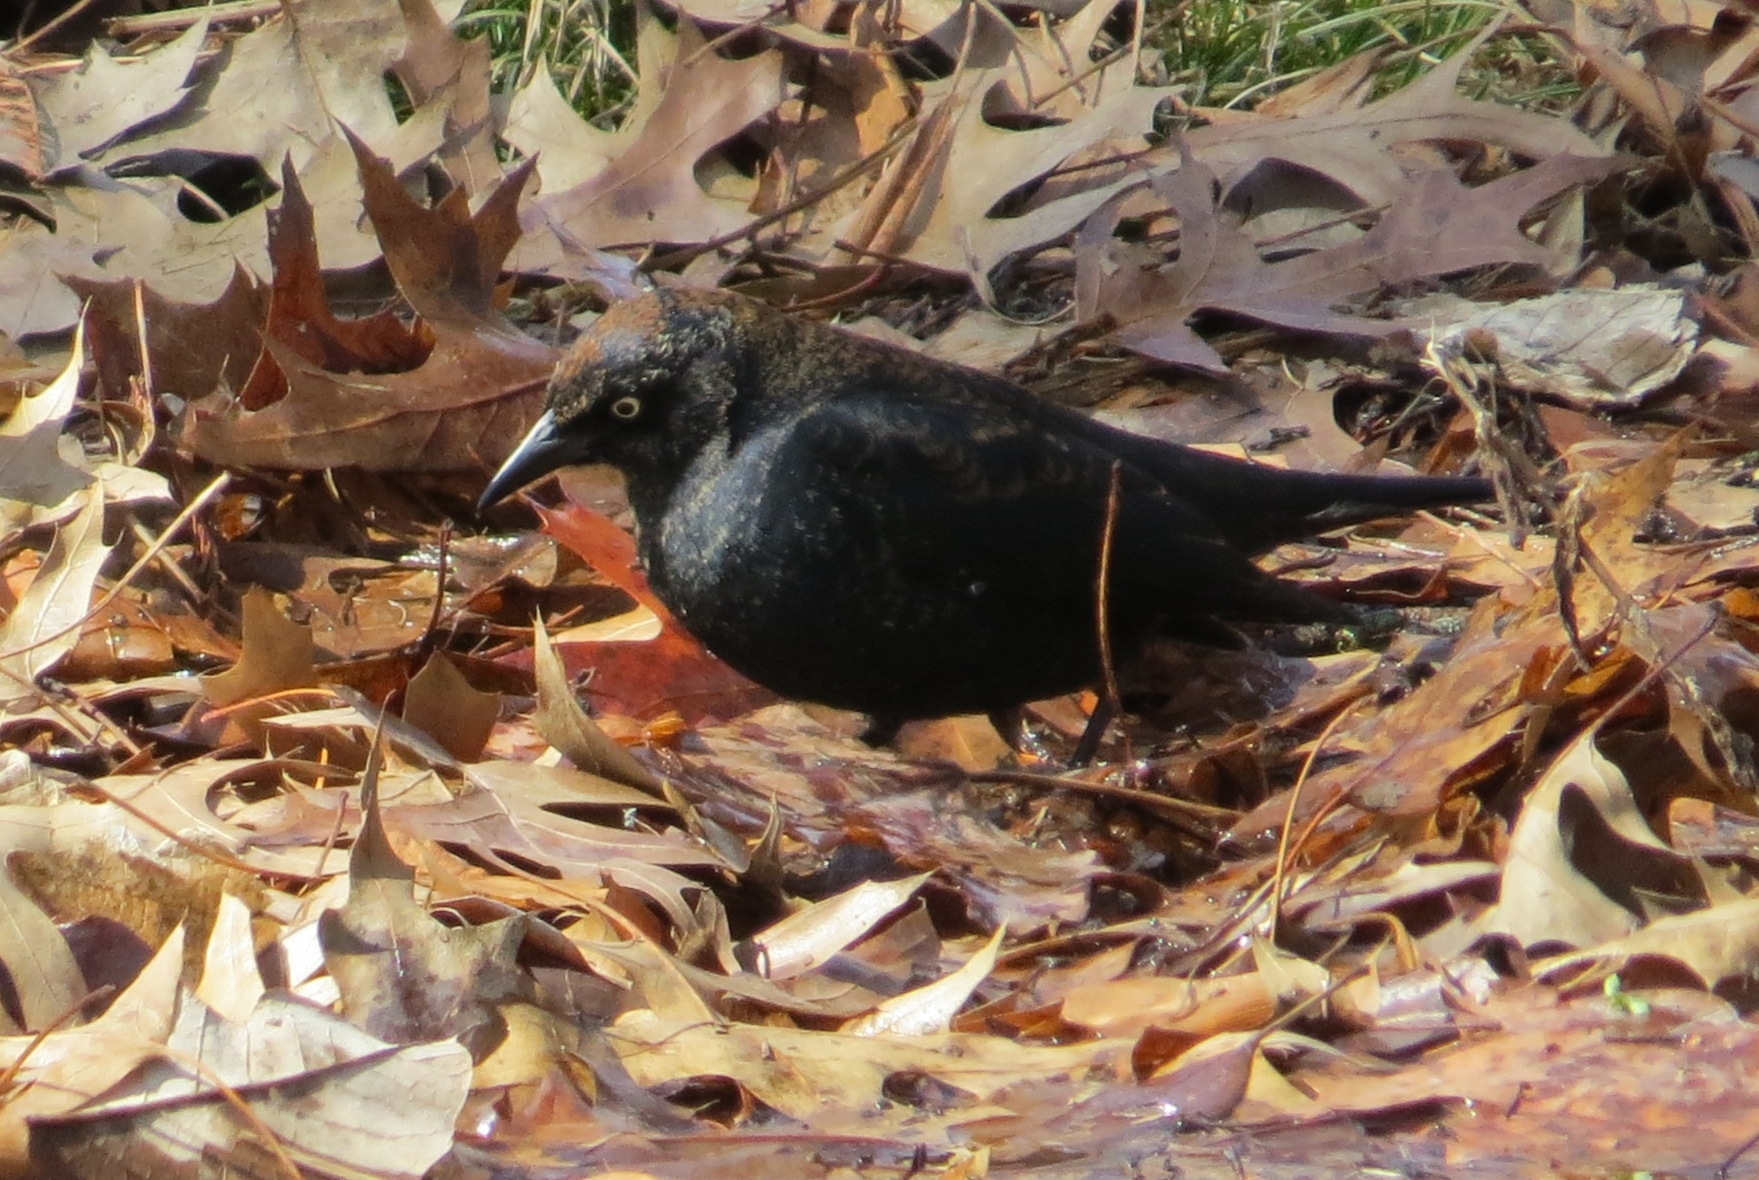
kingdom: Animalia
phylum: Chordata
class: Aves
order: Passeriformes
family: Icteridae
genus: Euphagus
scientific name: Euphagus carolinus
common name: Rusty blackbird
